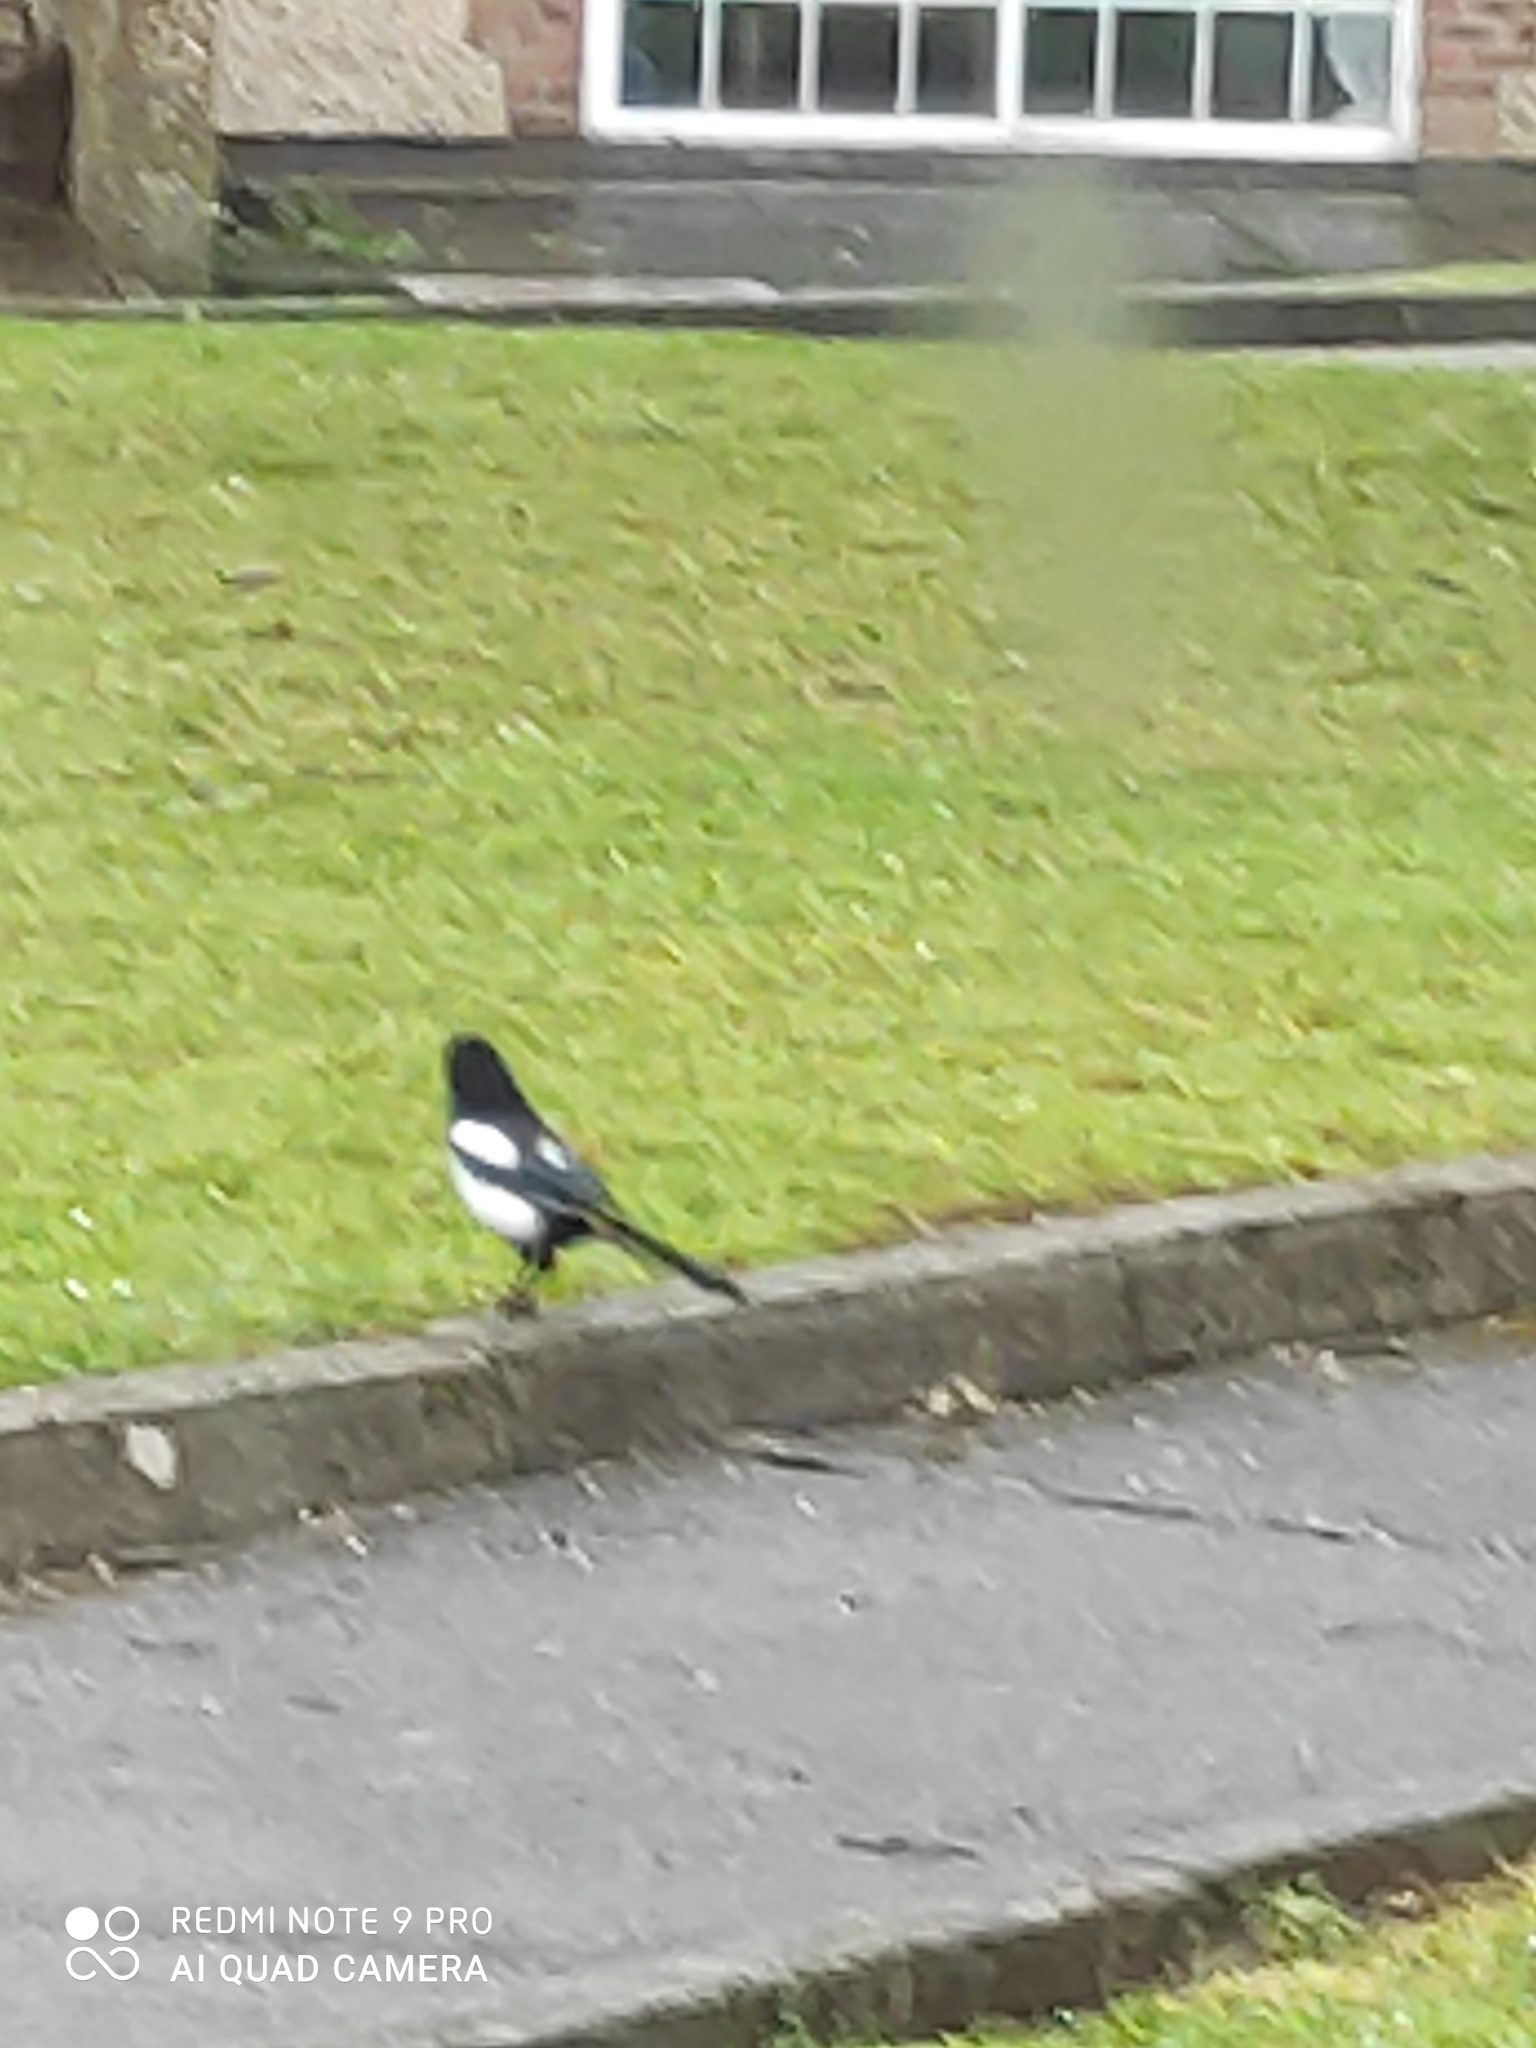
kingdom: Animalia
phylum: Chordata
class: Aves
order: Passeriformes
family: Corvidae
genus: Pica
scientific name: Pica pica
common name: Eurasian magpie
